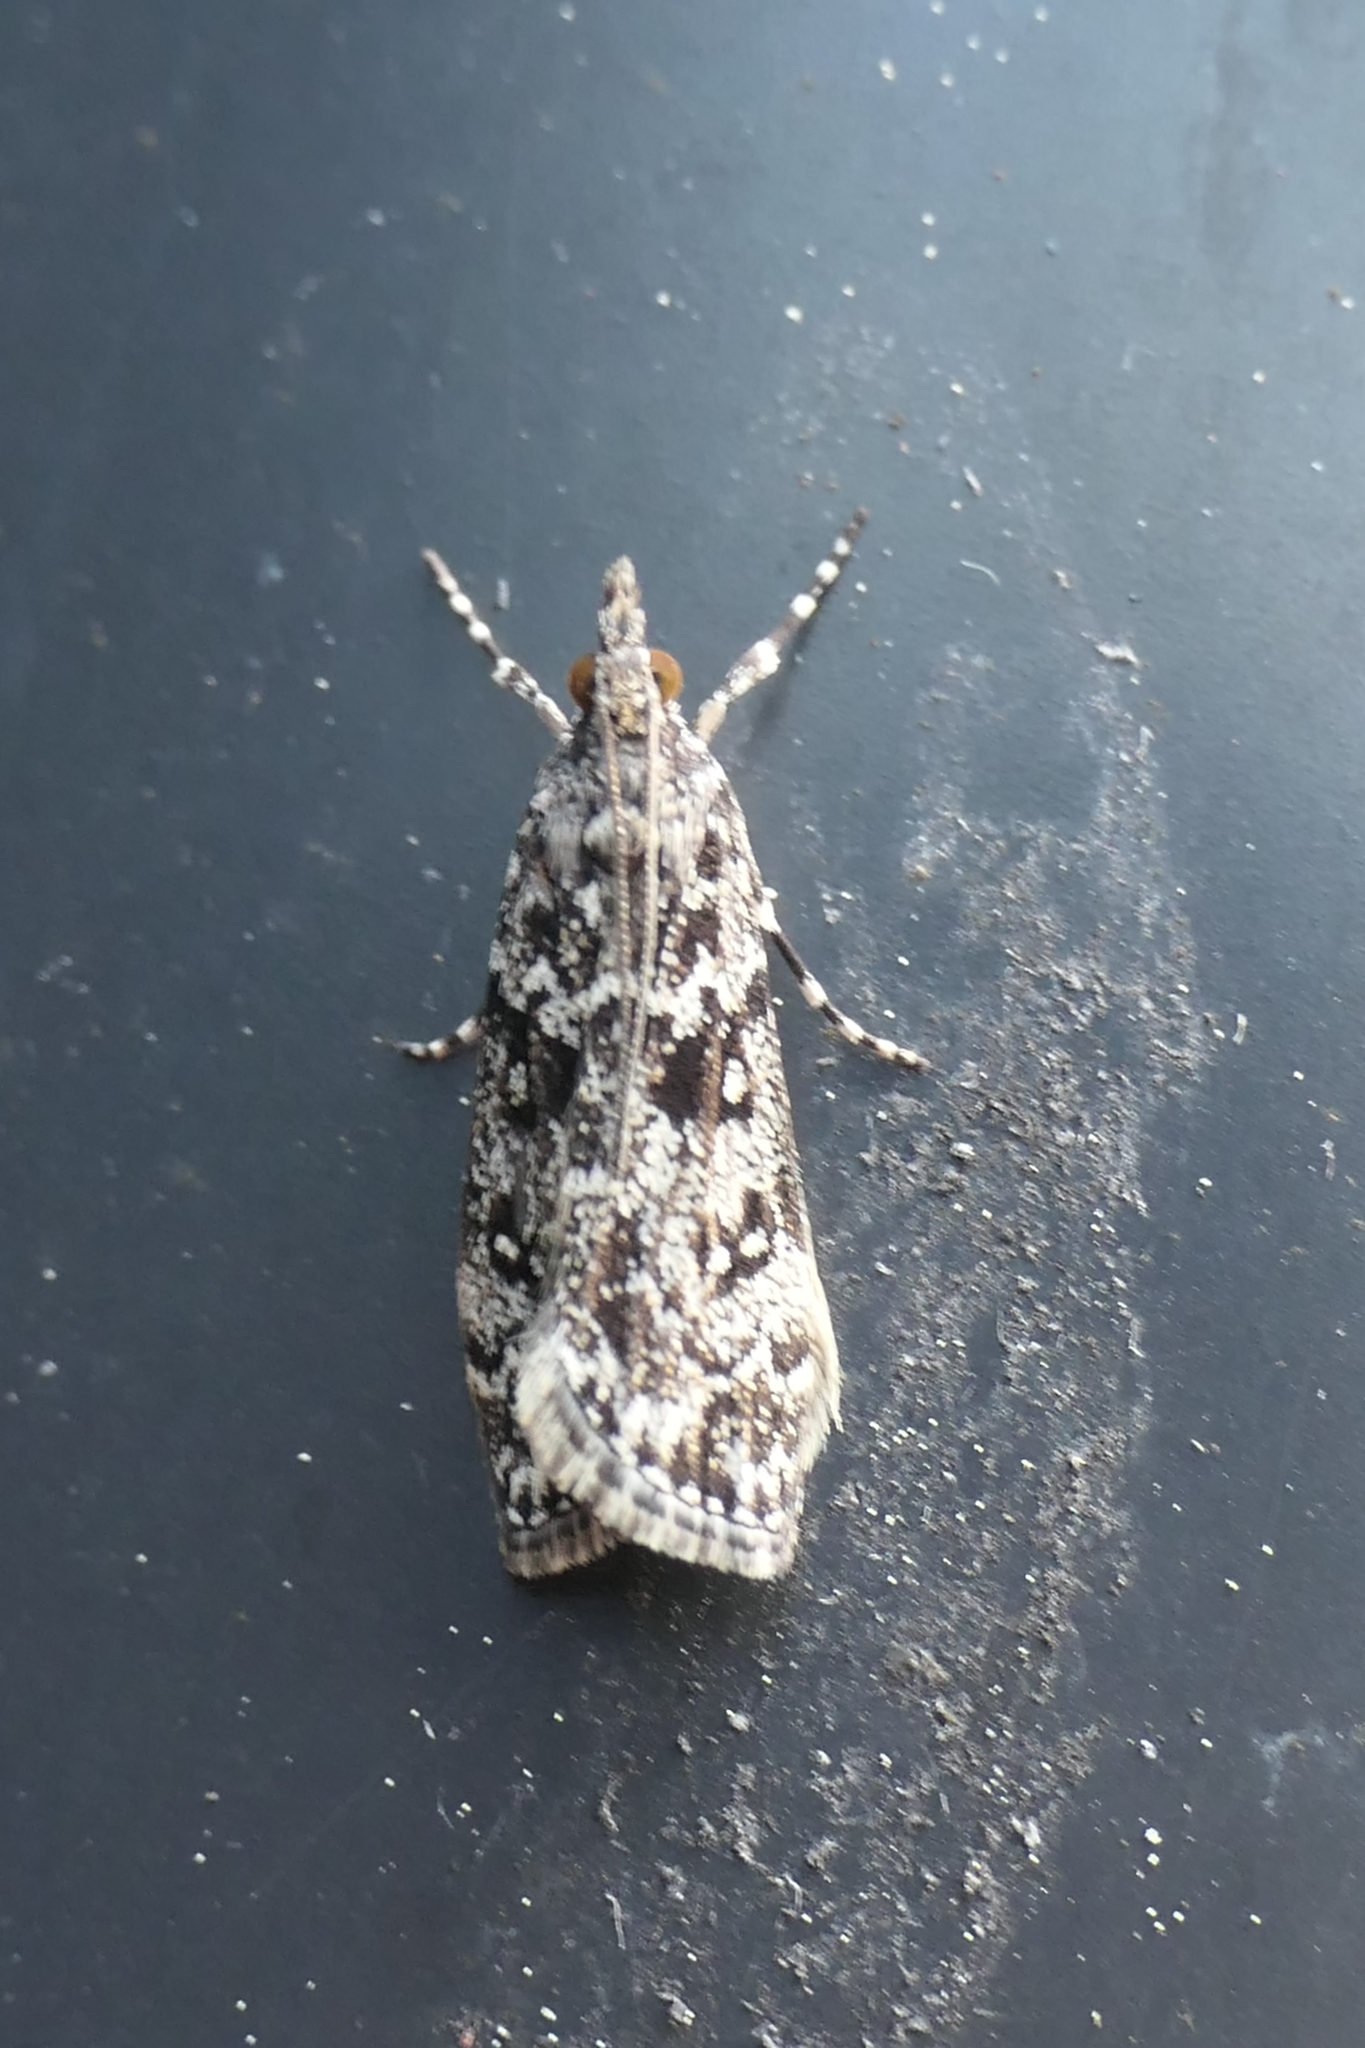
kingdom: Animalia
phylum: Arthropoda
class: Insecta
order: Lepidoptera
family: Crambidae
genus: Eudonia
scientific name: Eudonia philerga
